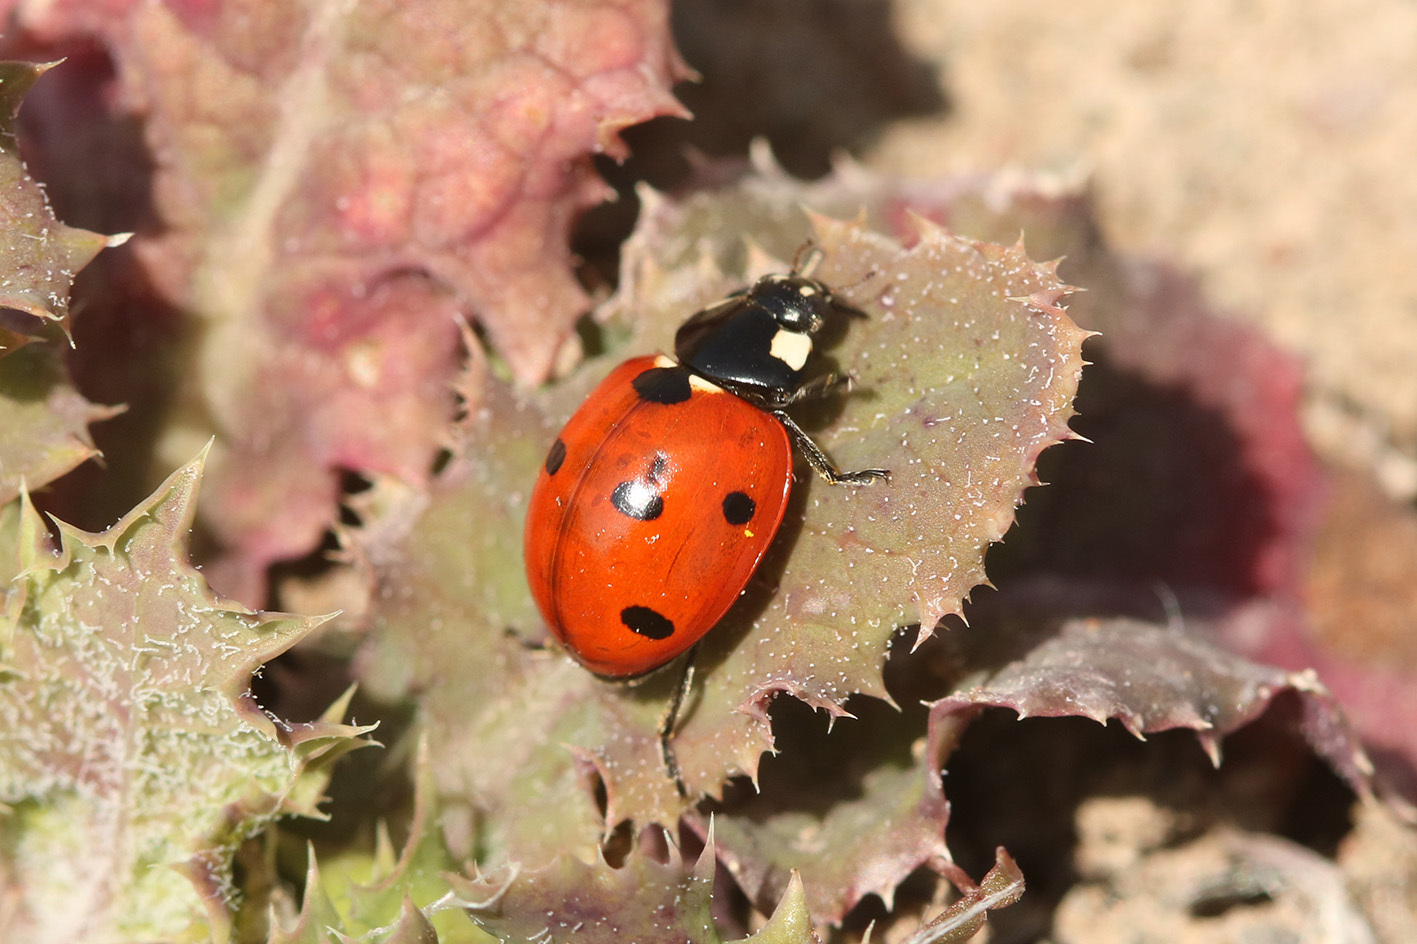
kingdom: Animalia
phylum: Arthropoda
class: Insecta
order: Coleoptera
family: Coccinellidae
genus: Coccinella
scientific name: Coccinella septempunctata
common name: Sevenspotted lady beetle
